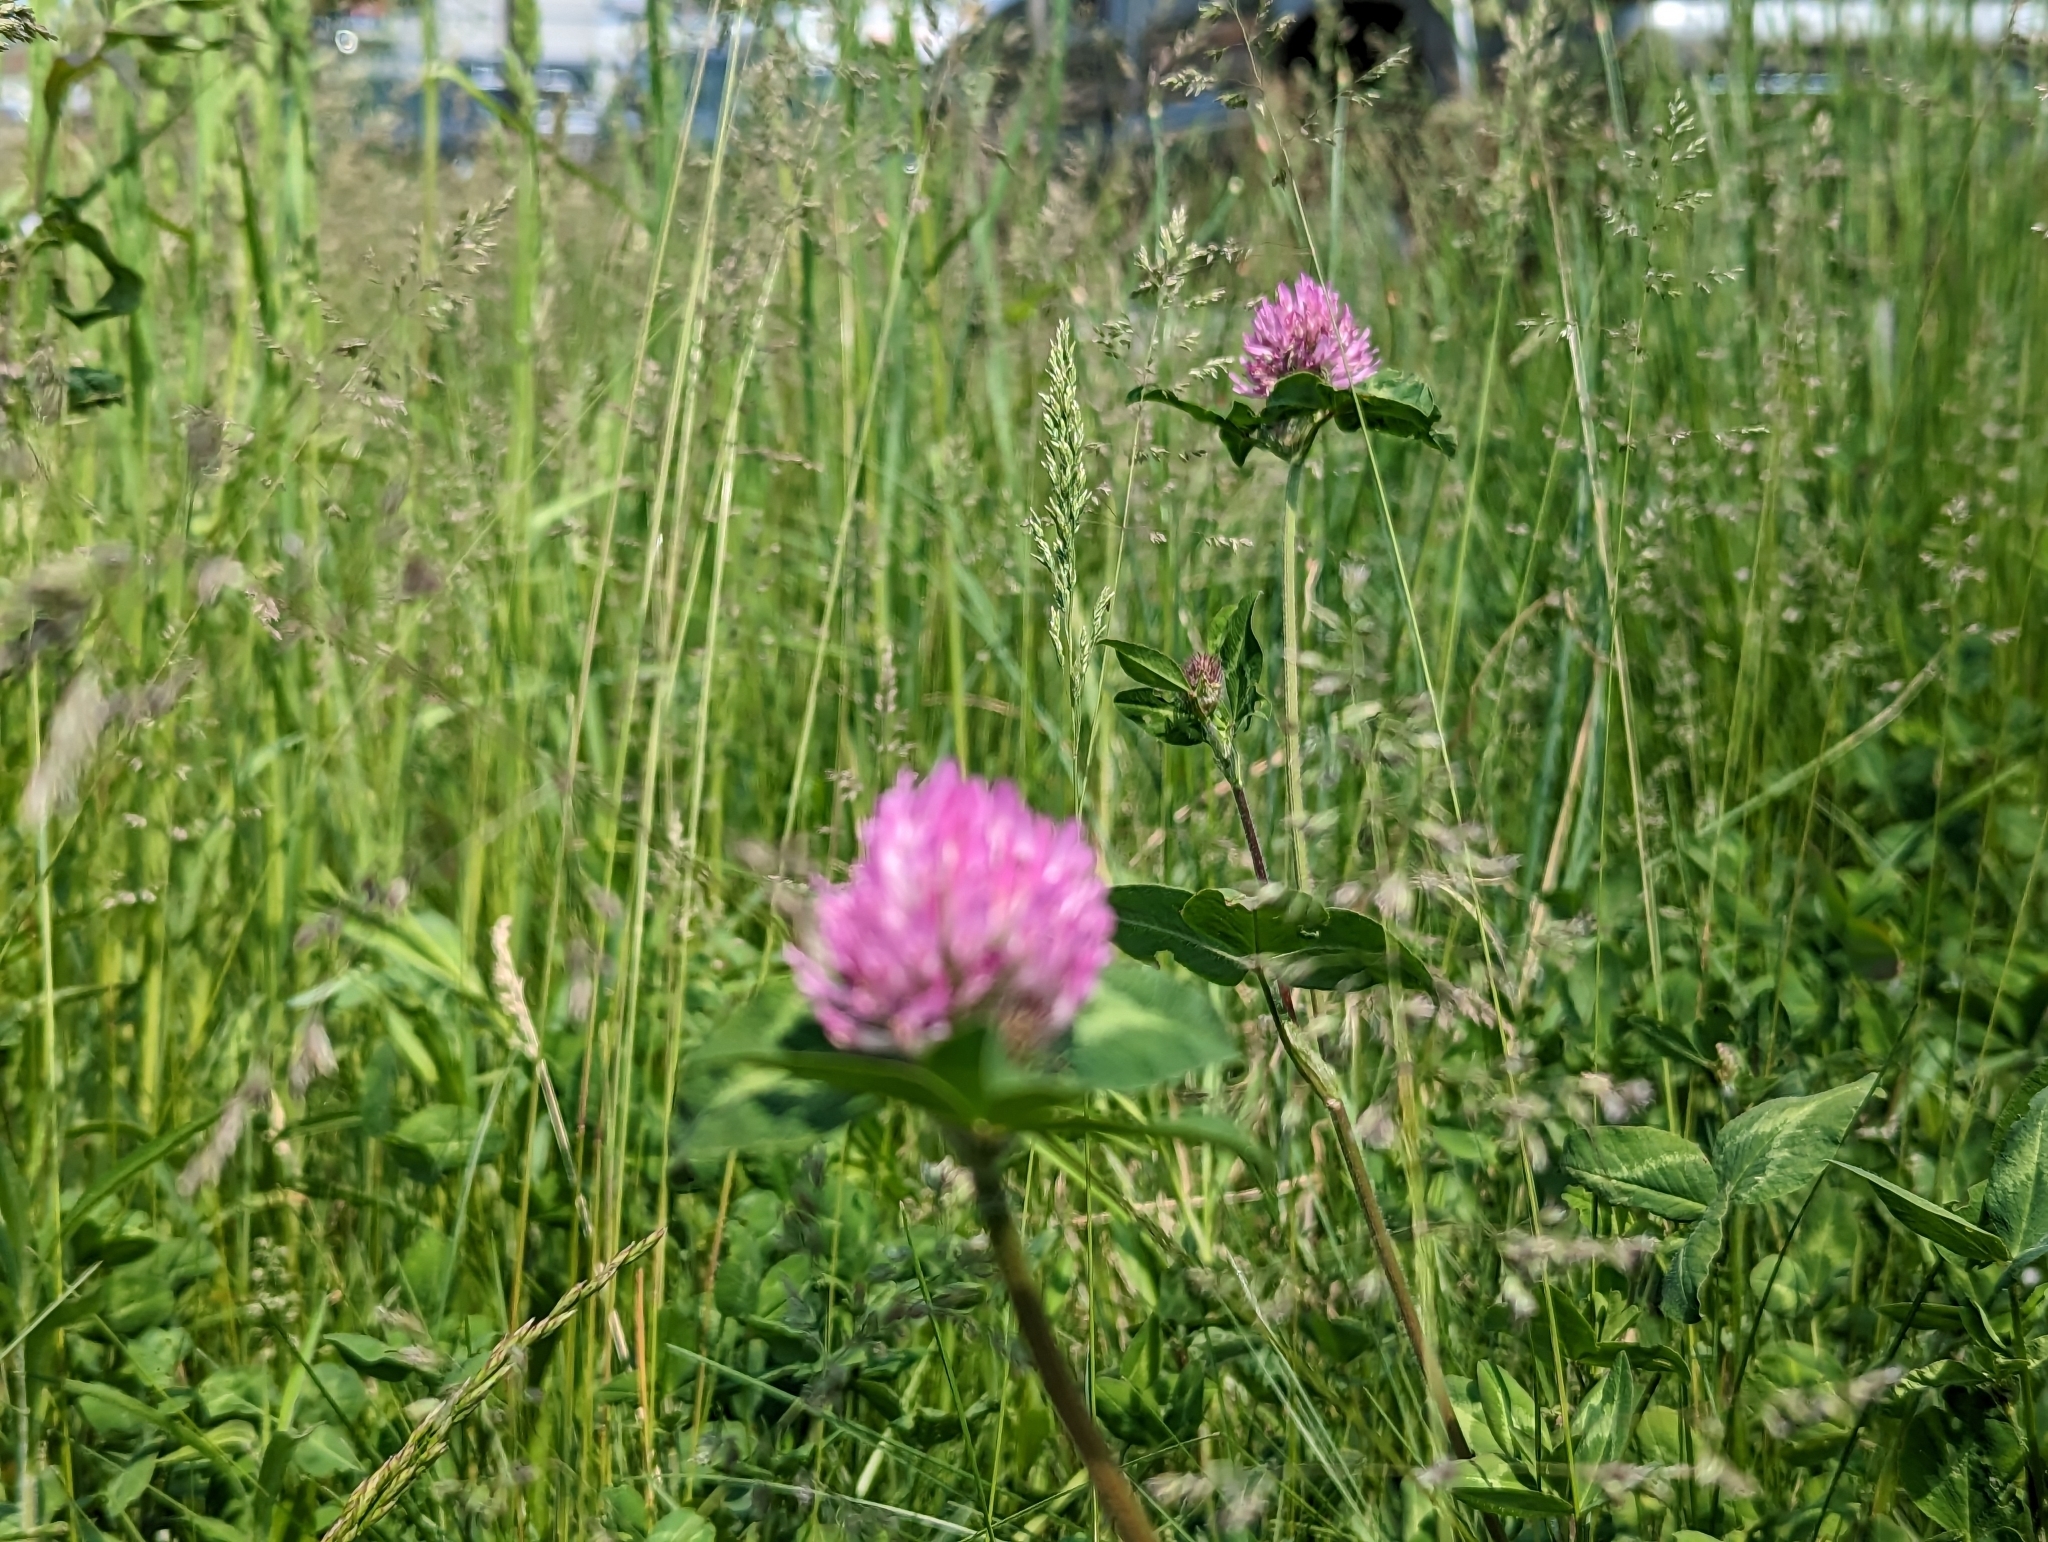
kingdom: Plantae
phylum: Tracheophyta
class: Magnoliopsida
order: Fabales
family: Fabaceae
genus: Trifolium
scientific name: Trifolium pratense
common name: Red clover
